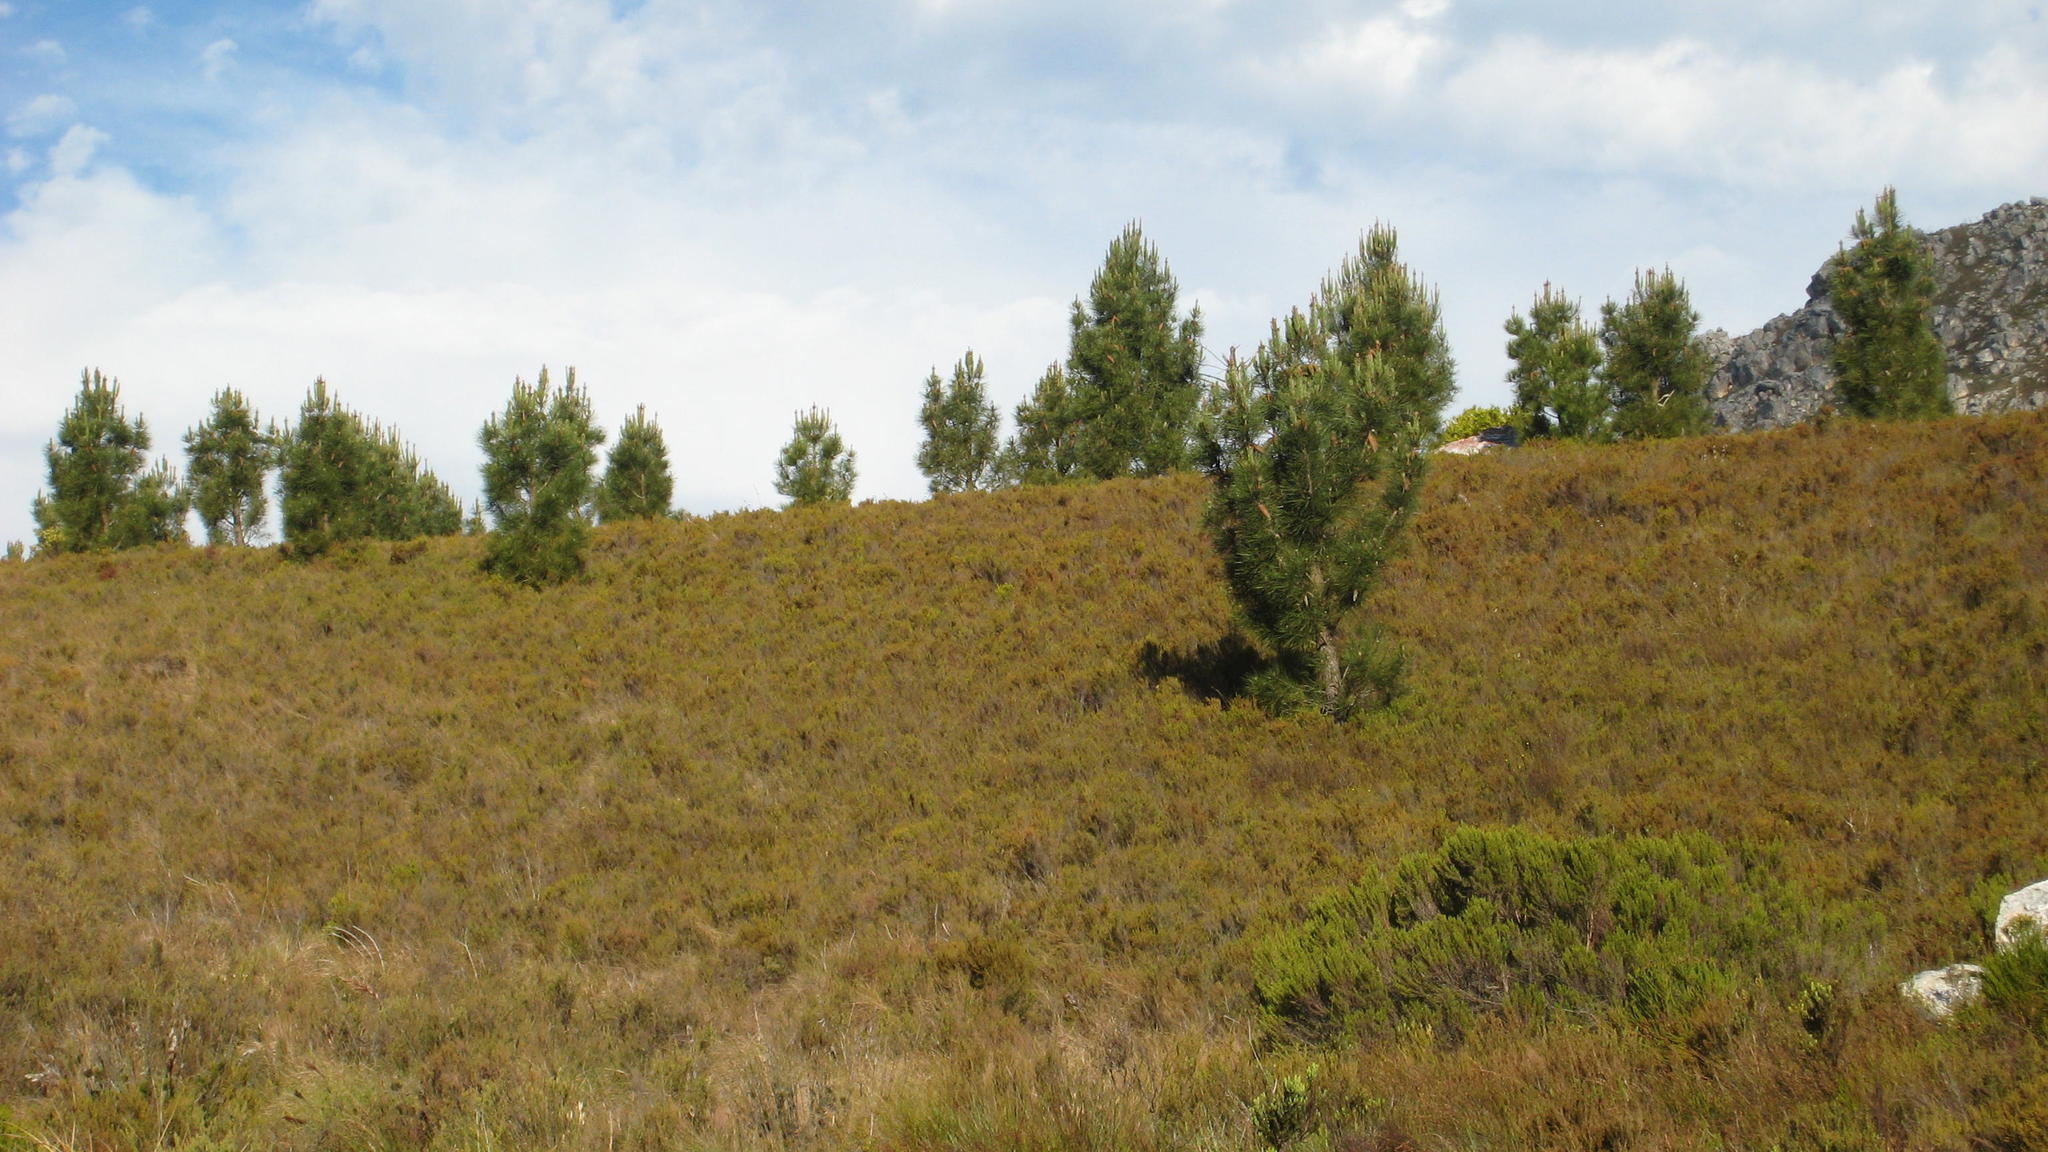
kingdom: Plantae
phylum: Tracheophyta
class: Pinopsida
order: Pinales
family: Pinaceae
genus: Pinus
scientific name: Pinus pinaster
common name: Maritime pine
